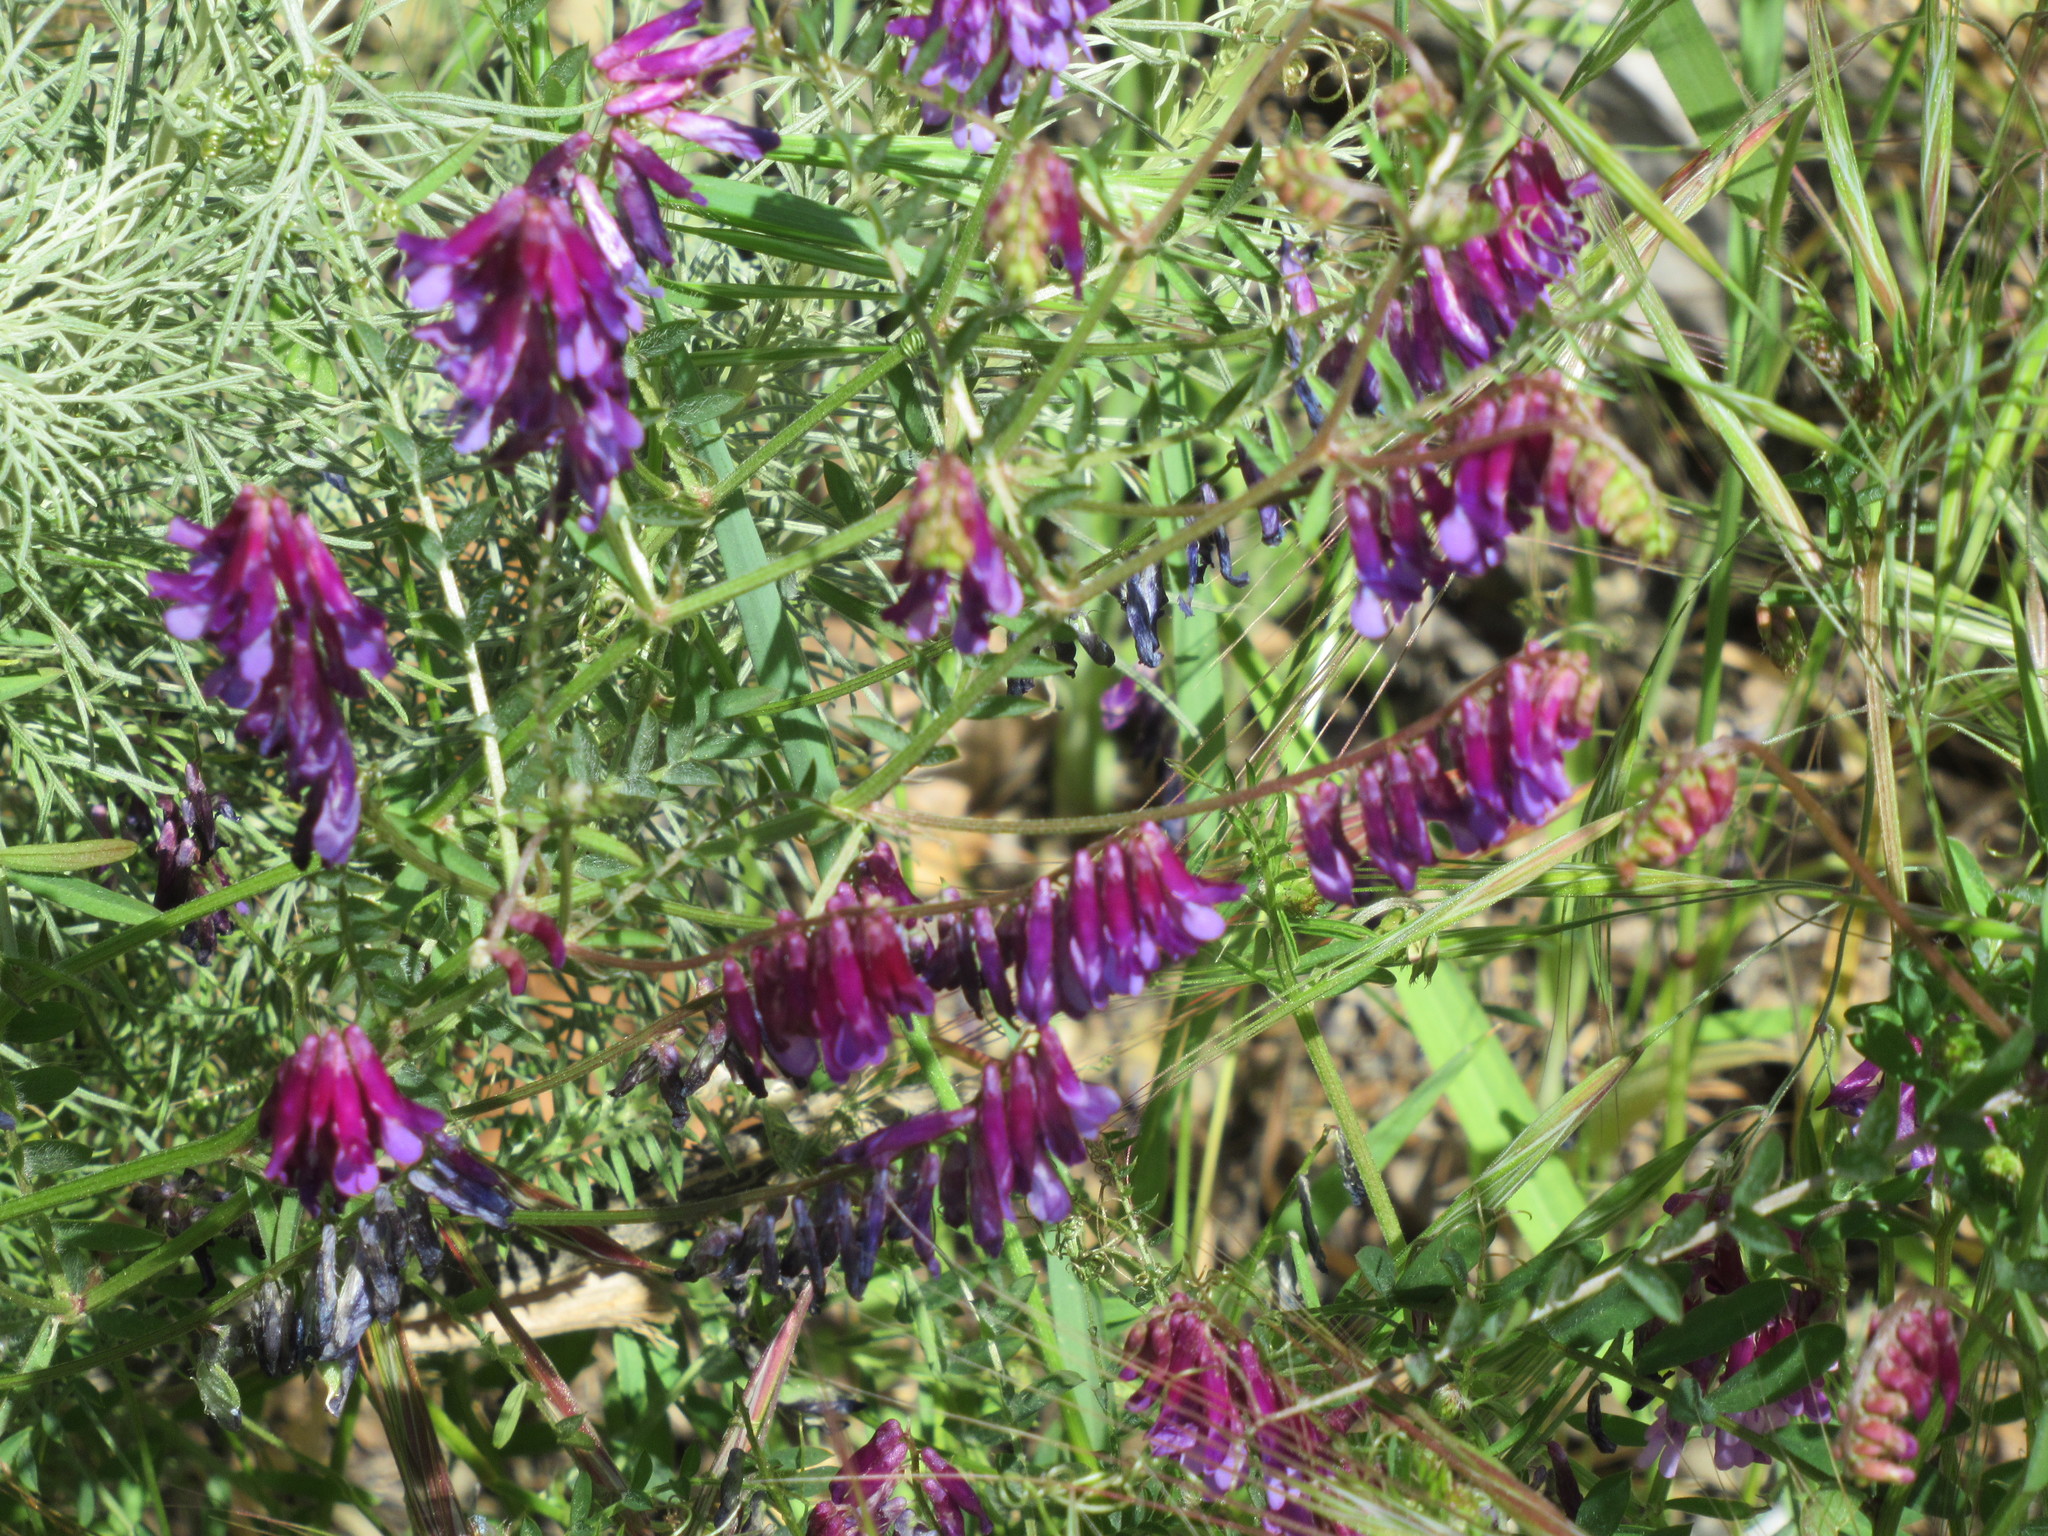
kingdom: Plantae
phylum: Tracheophyta
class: Magnoliopsida
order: Fabales
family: Fabaceae
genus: Vicia
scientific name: Vicia villosa
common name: Fodder vetch
